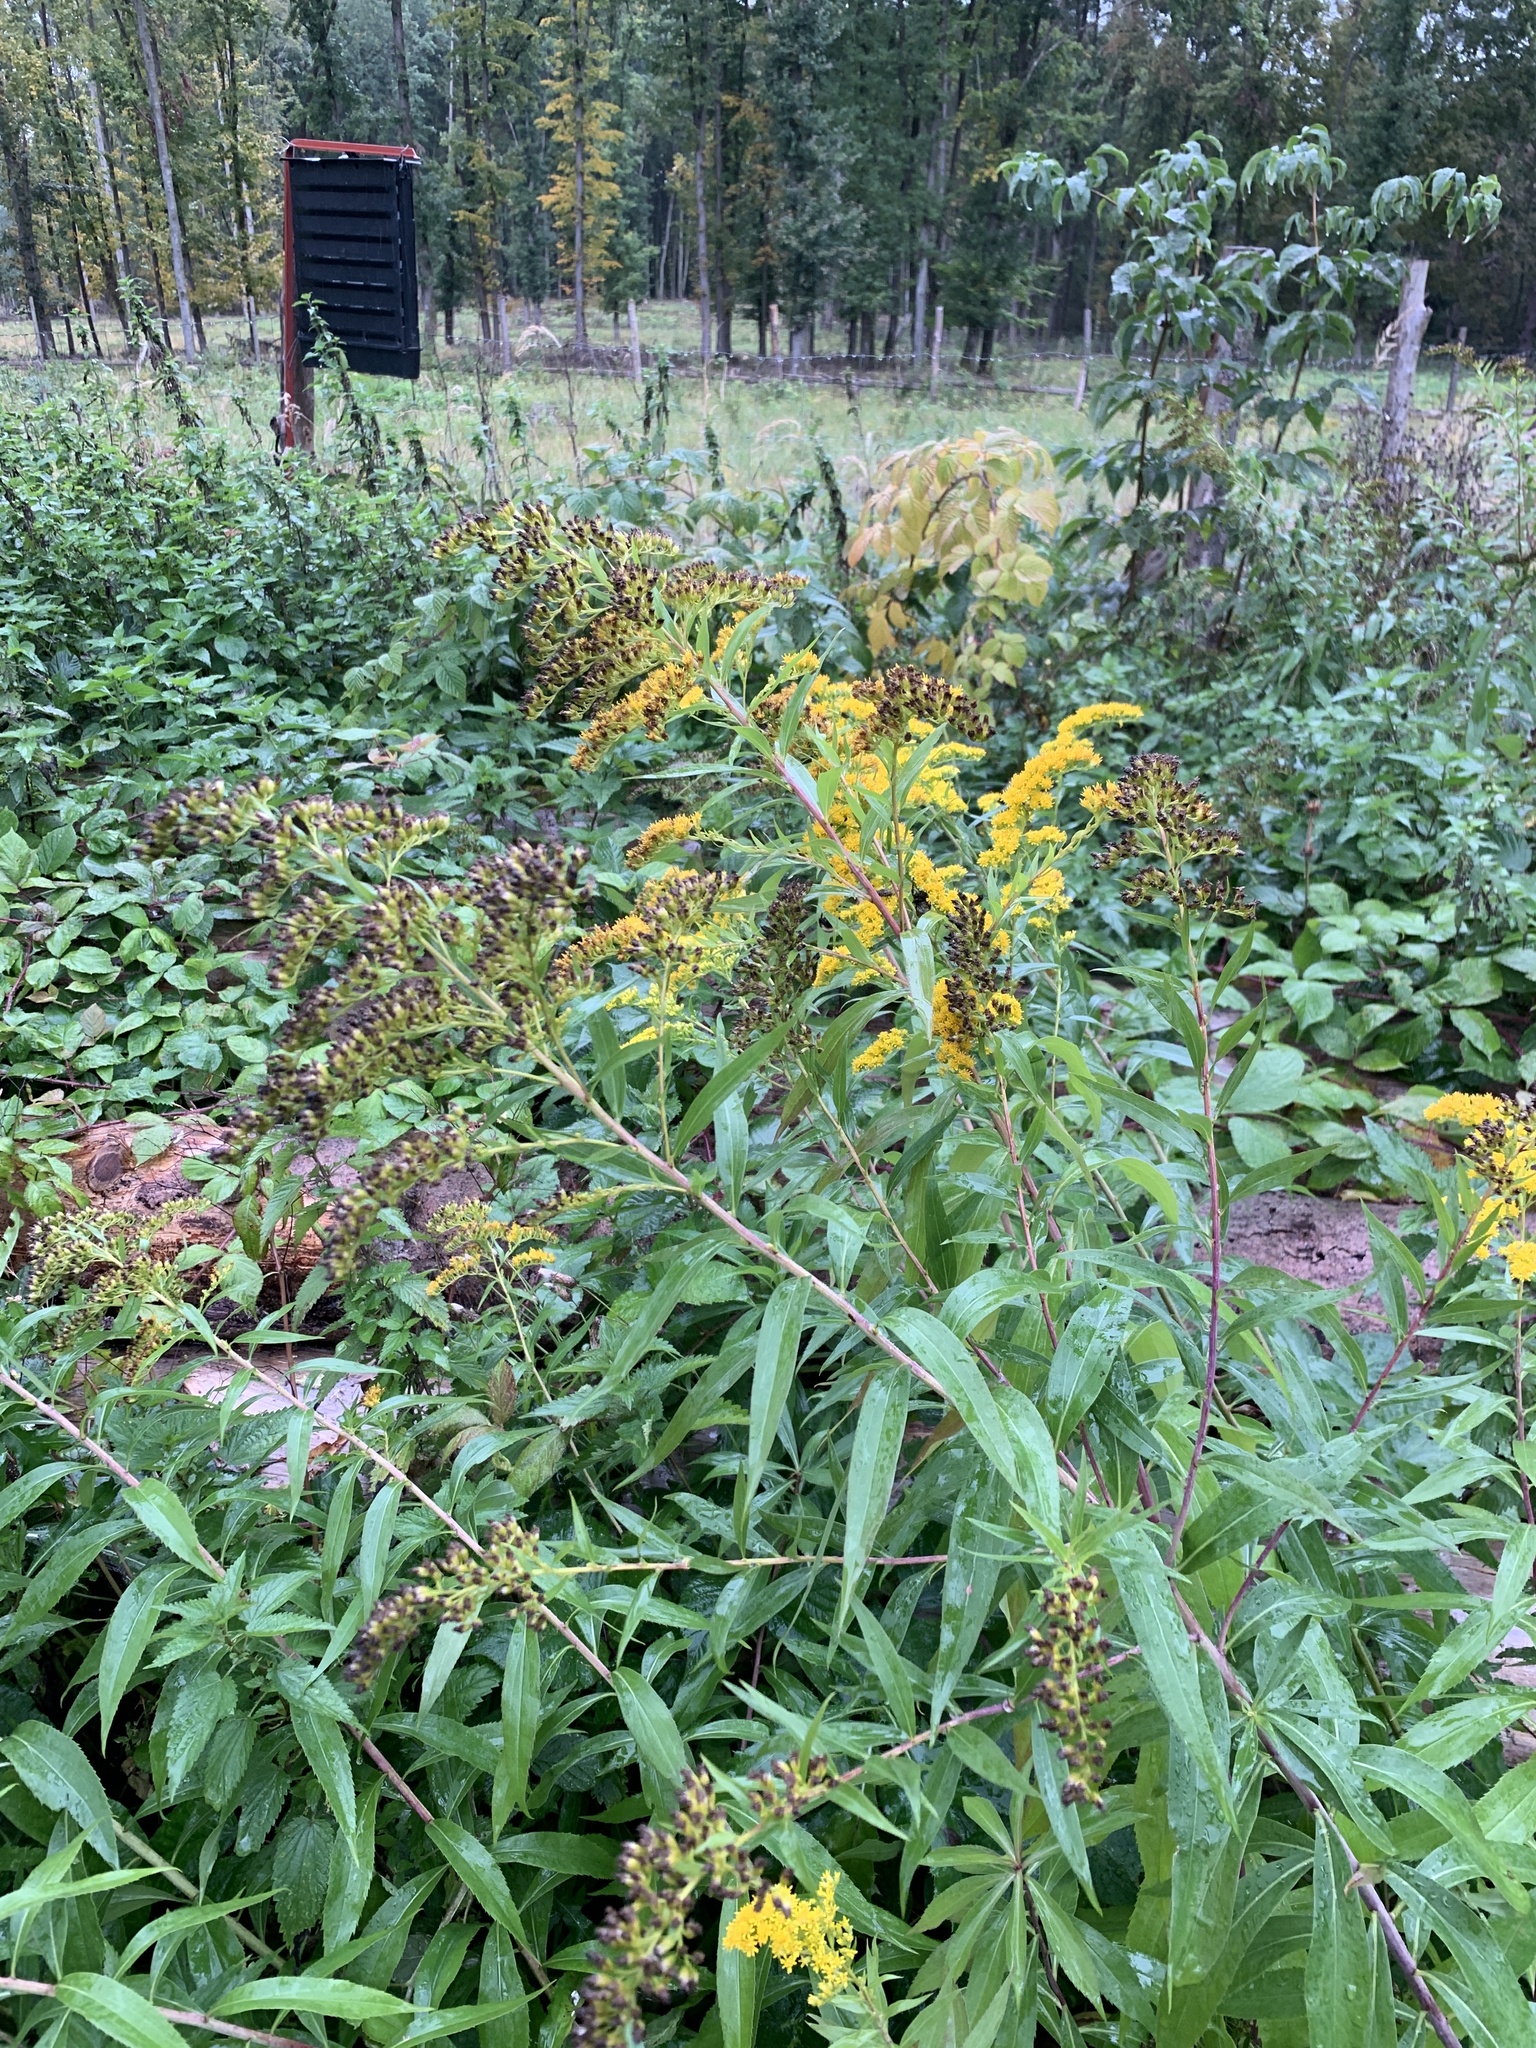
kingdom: Plantae
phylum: Tracheophyta
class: Magnoliopsida
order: Asterales
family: Asteraceae
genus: Solidago
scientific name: Solidago gigantea
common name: Giant goldenrod
